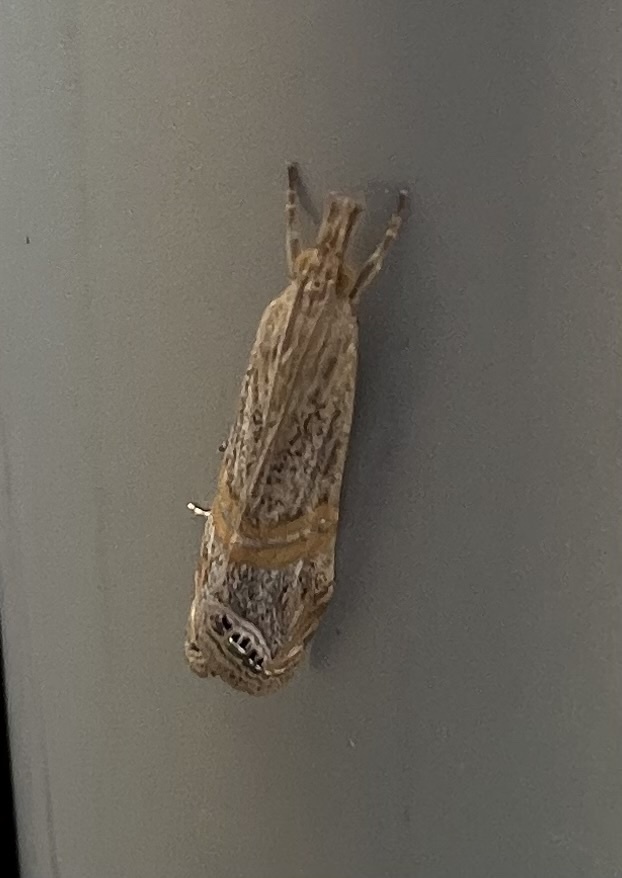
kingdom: Animalia
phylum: Arthropoda
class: Insecta
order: Lepidoptera
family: Crambidae
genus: Euchromius
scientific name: Euchromius ocellea
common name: Necklace veneer moth
